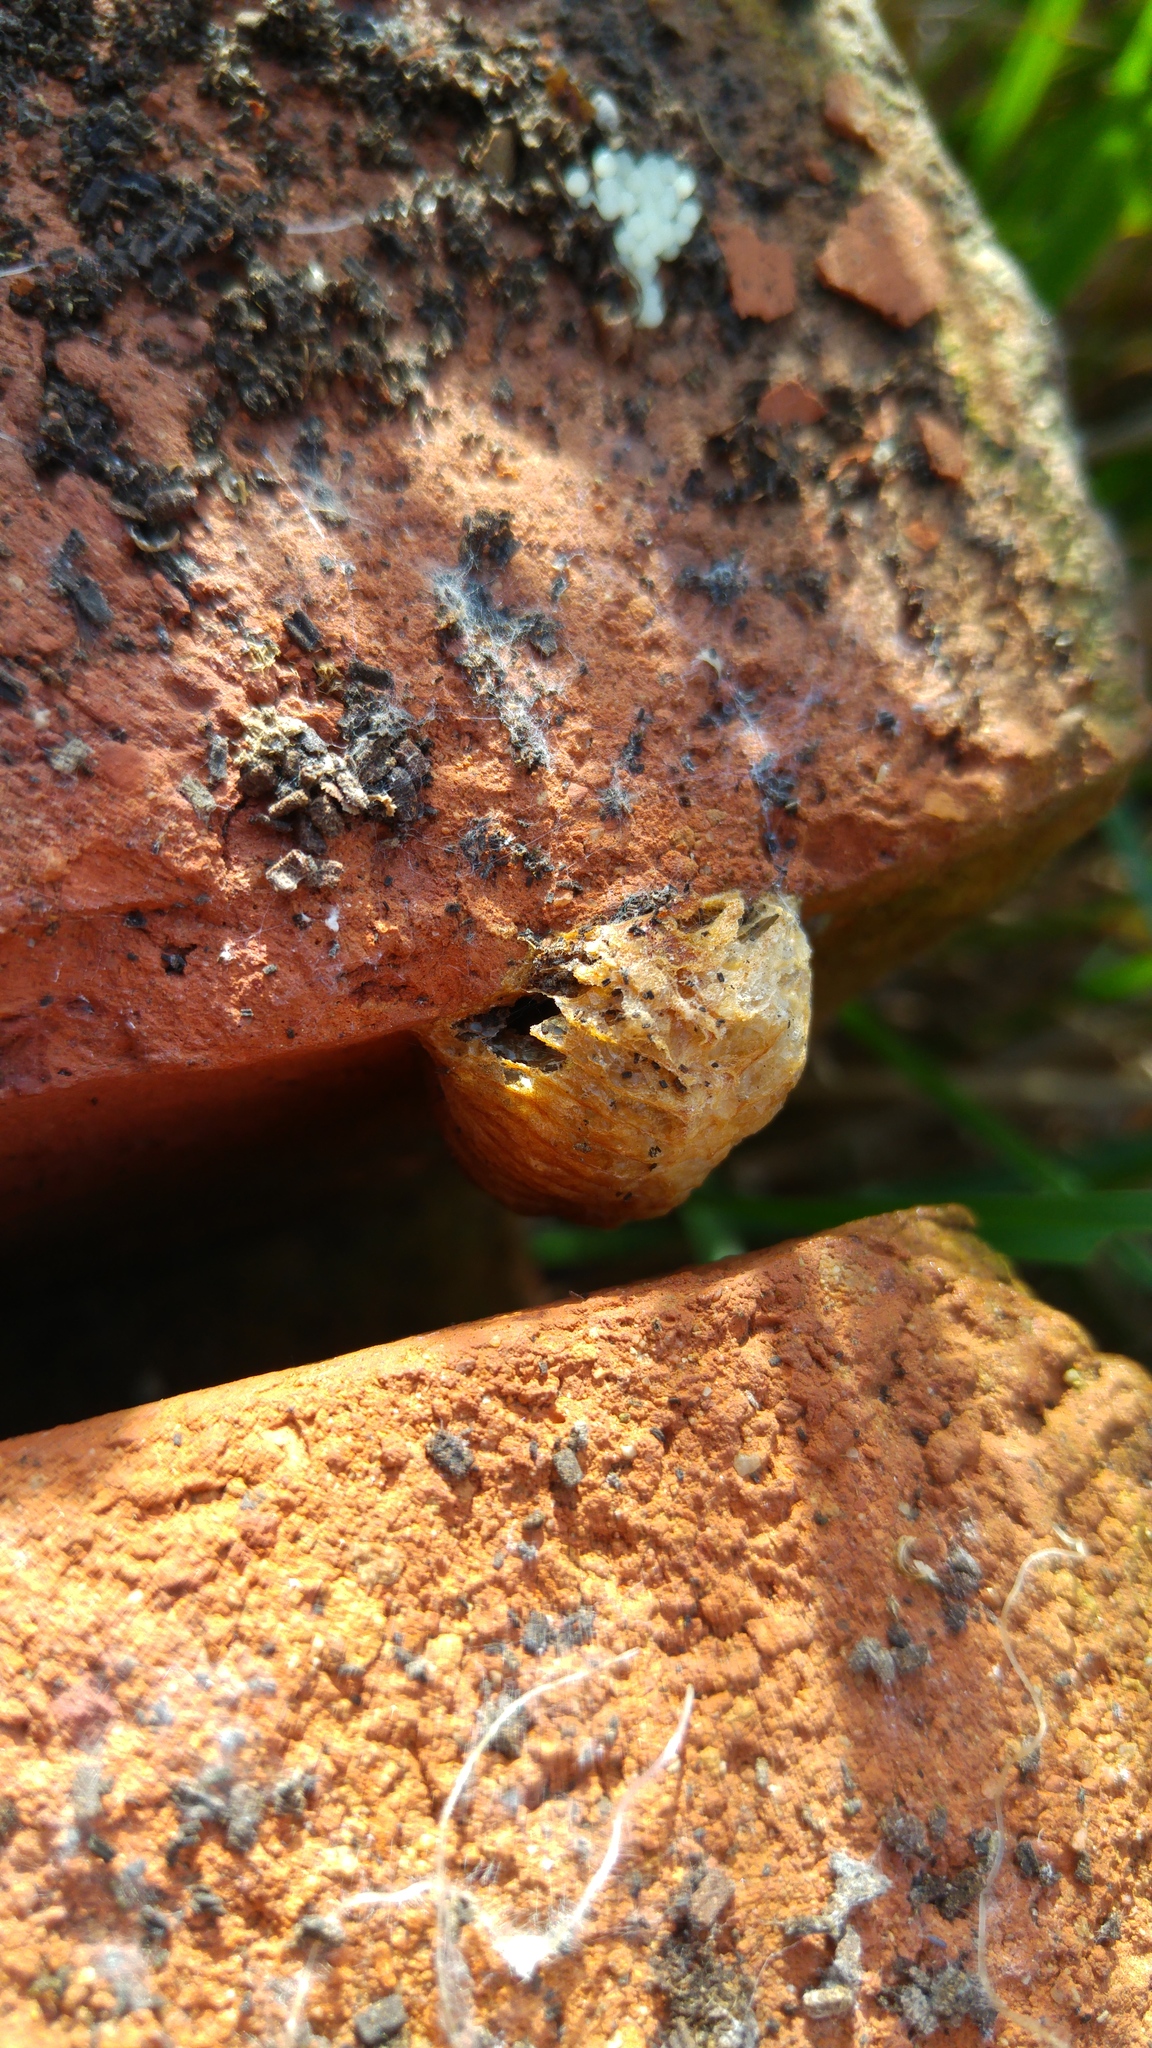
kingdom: Animalia
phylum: Arthropoda
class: Insecta
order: Mantodea
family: Mantidae
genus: Mantis
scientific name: Mantis religiosa
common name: Praying mantis
